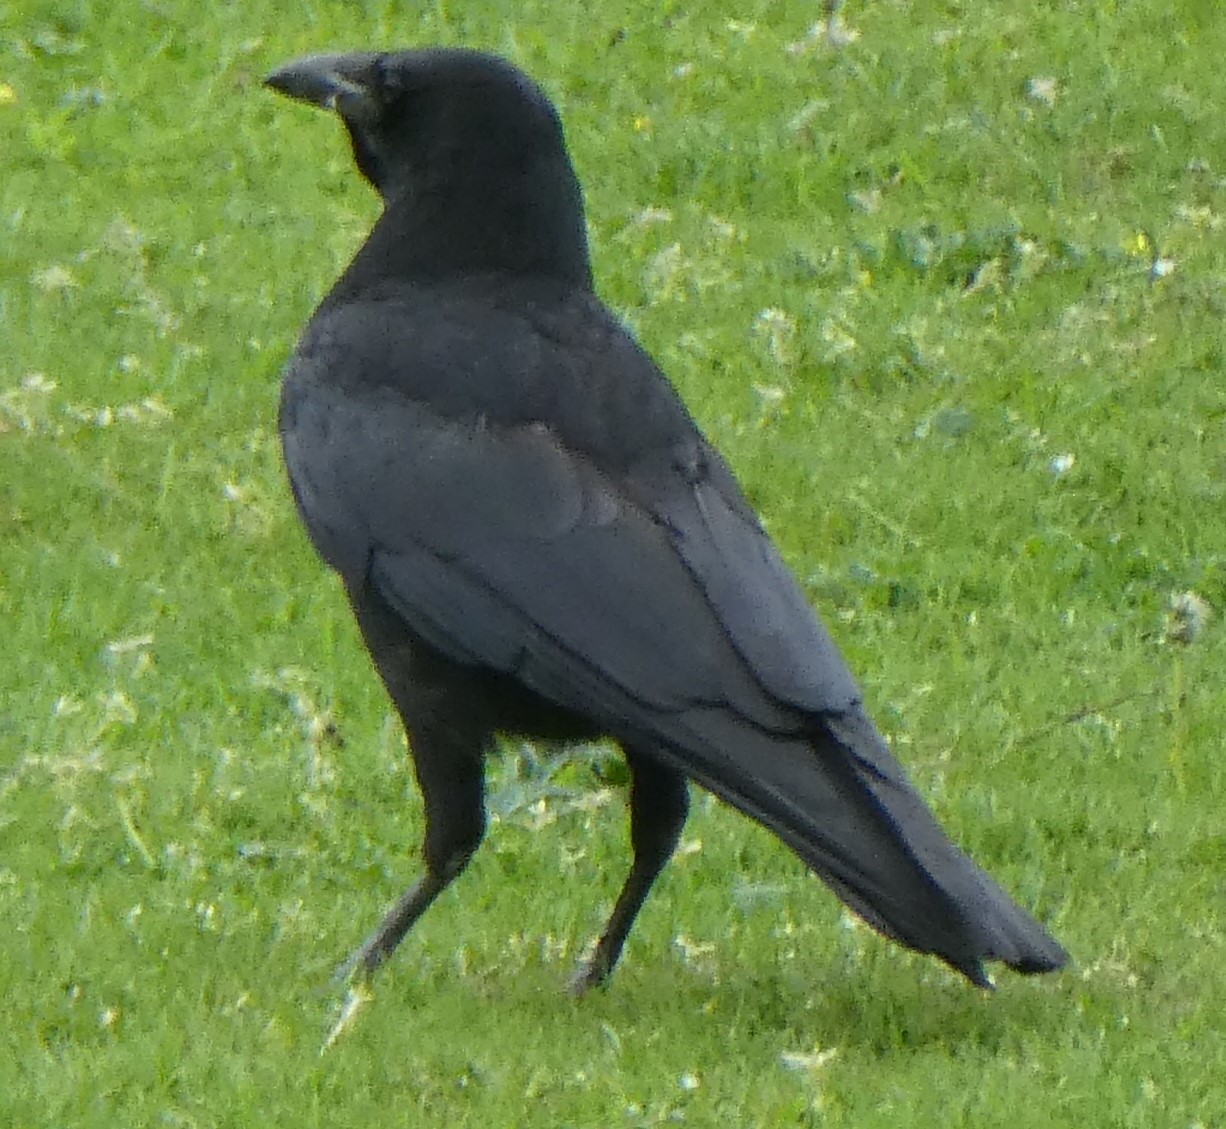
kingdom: Animalia
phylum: Chordata
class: Aves
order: Passeriformes
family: Corvidae
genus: Corvus
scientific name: Corvus corone
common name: Carrion crow
